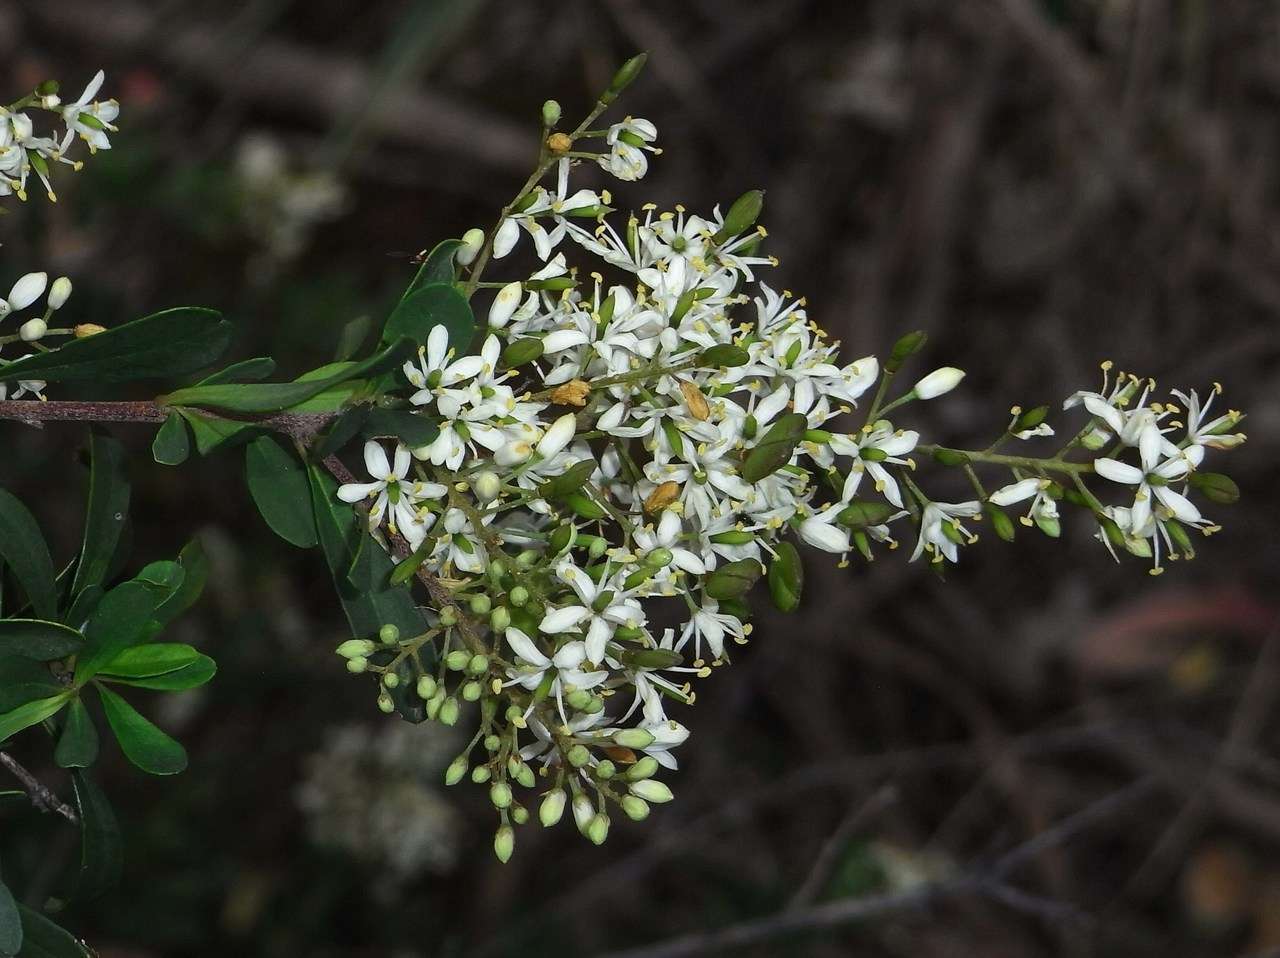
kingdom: Plantae
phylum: Tracheophyta
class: Magnoliopsida
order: Apiales
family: Pittosporaceae
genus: Bursaria
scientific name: Bursaria spinosa
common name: Australian blackthorn
